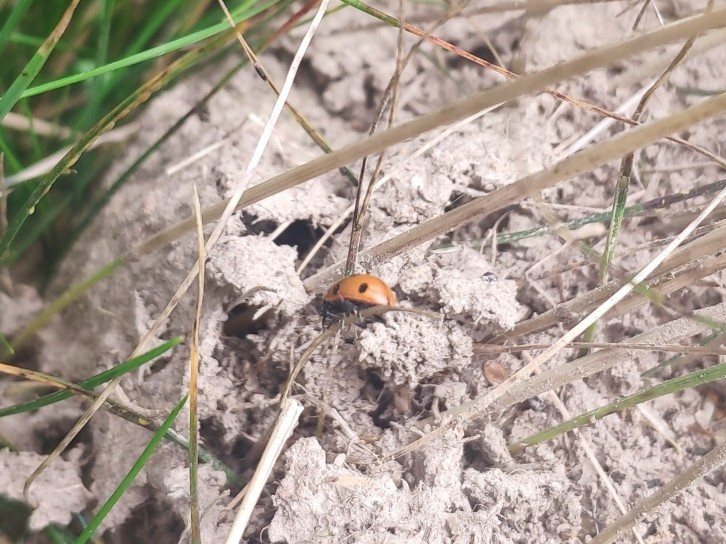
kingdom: Animalia
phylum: Arthropoda
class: Insecta
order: Coleoptera
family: Coccinellidae
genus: Coccinella
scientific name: Coccinella septempunctata
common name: Sevenspotted lady beetle
